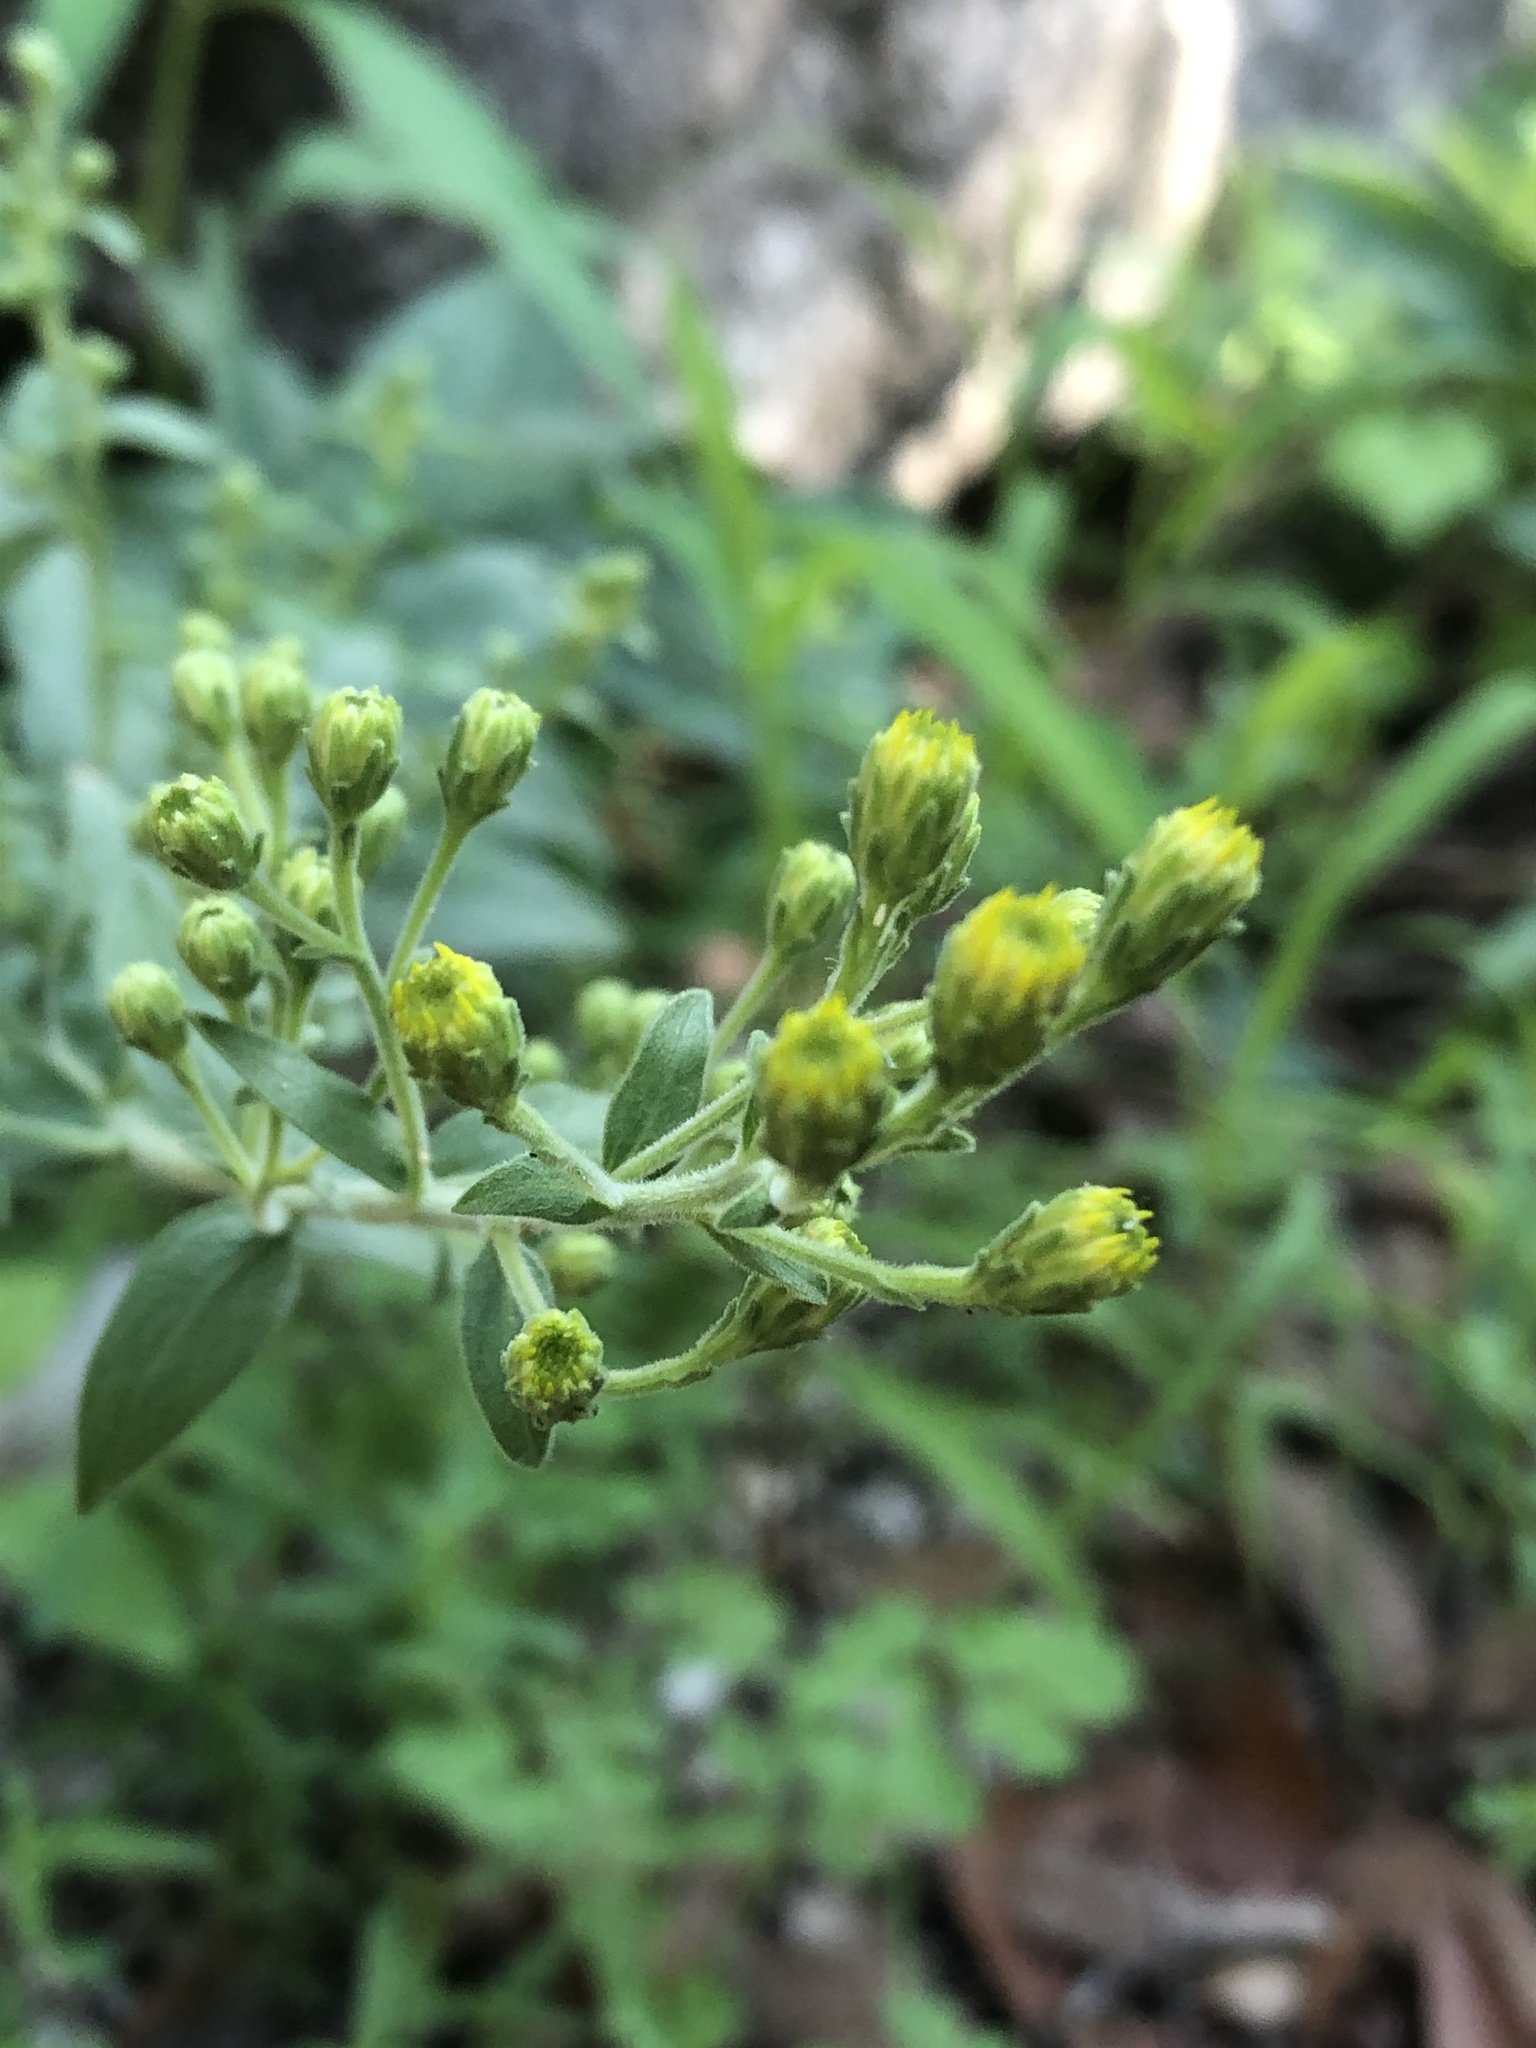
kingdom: Plantae
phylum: Tracheophyta
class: Magnoliopsida
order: Asterales
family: Asteraceae
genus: Solidago
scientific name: Solidago wrightii
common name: Wright's goldenrod
